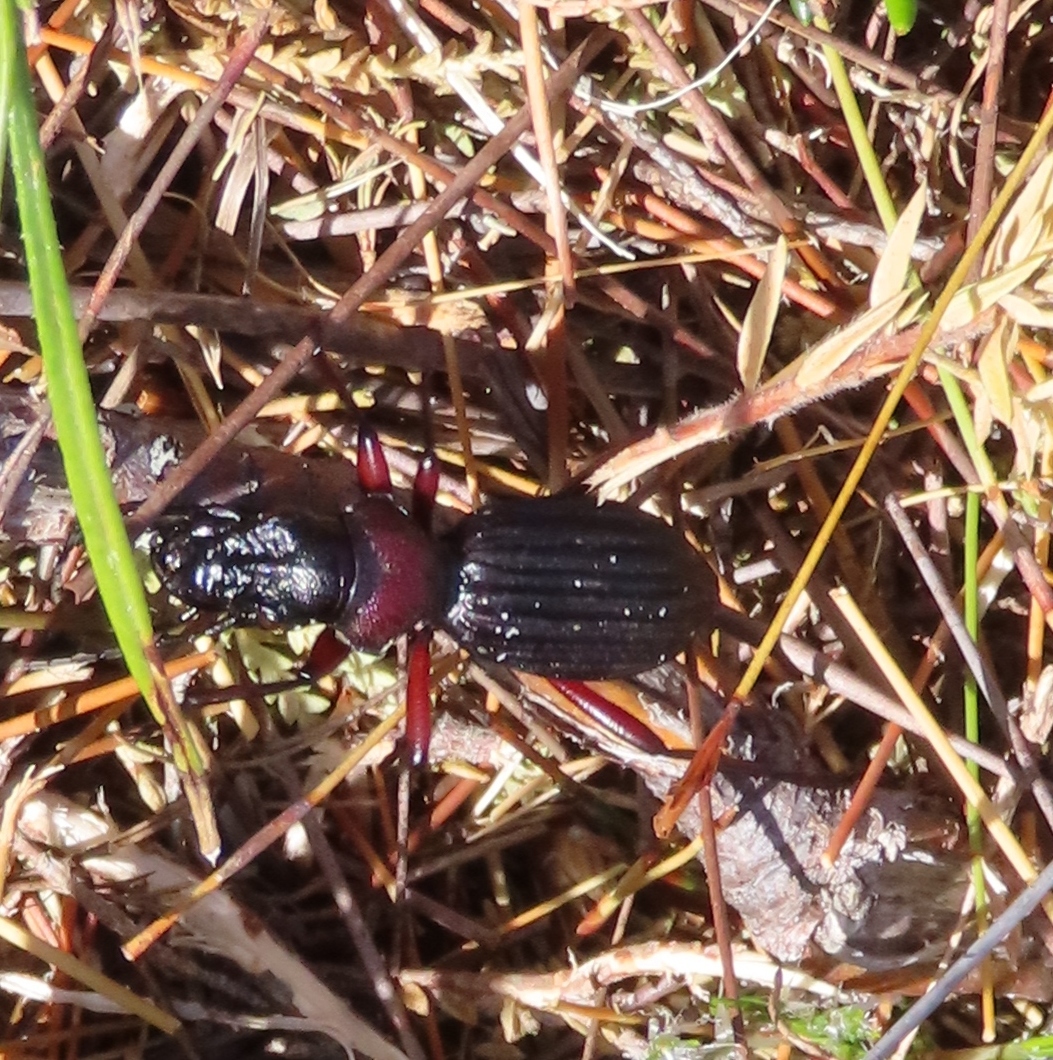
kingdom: Animalia
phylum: Arthropoda
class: Insecta
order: Coleoptera
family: Carabidae
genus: Anthia
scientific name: Anthia decemguttata
